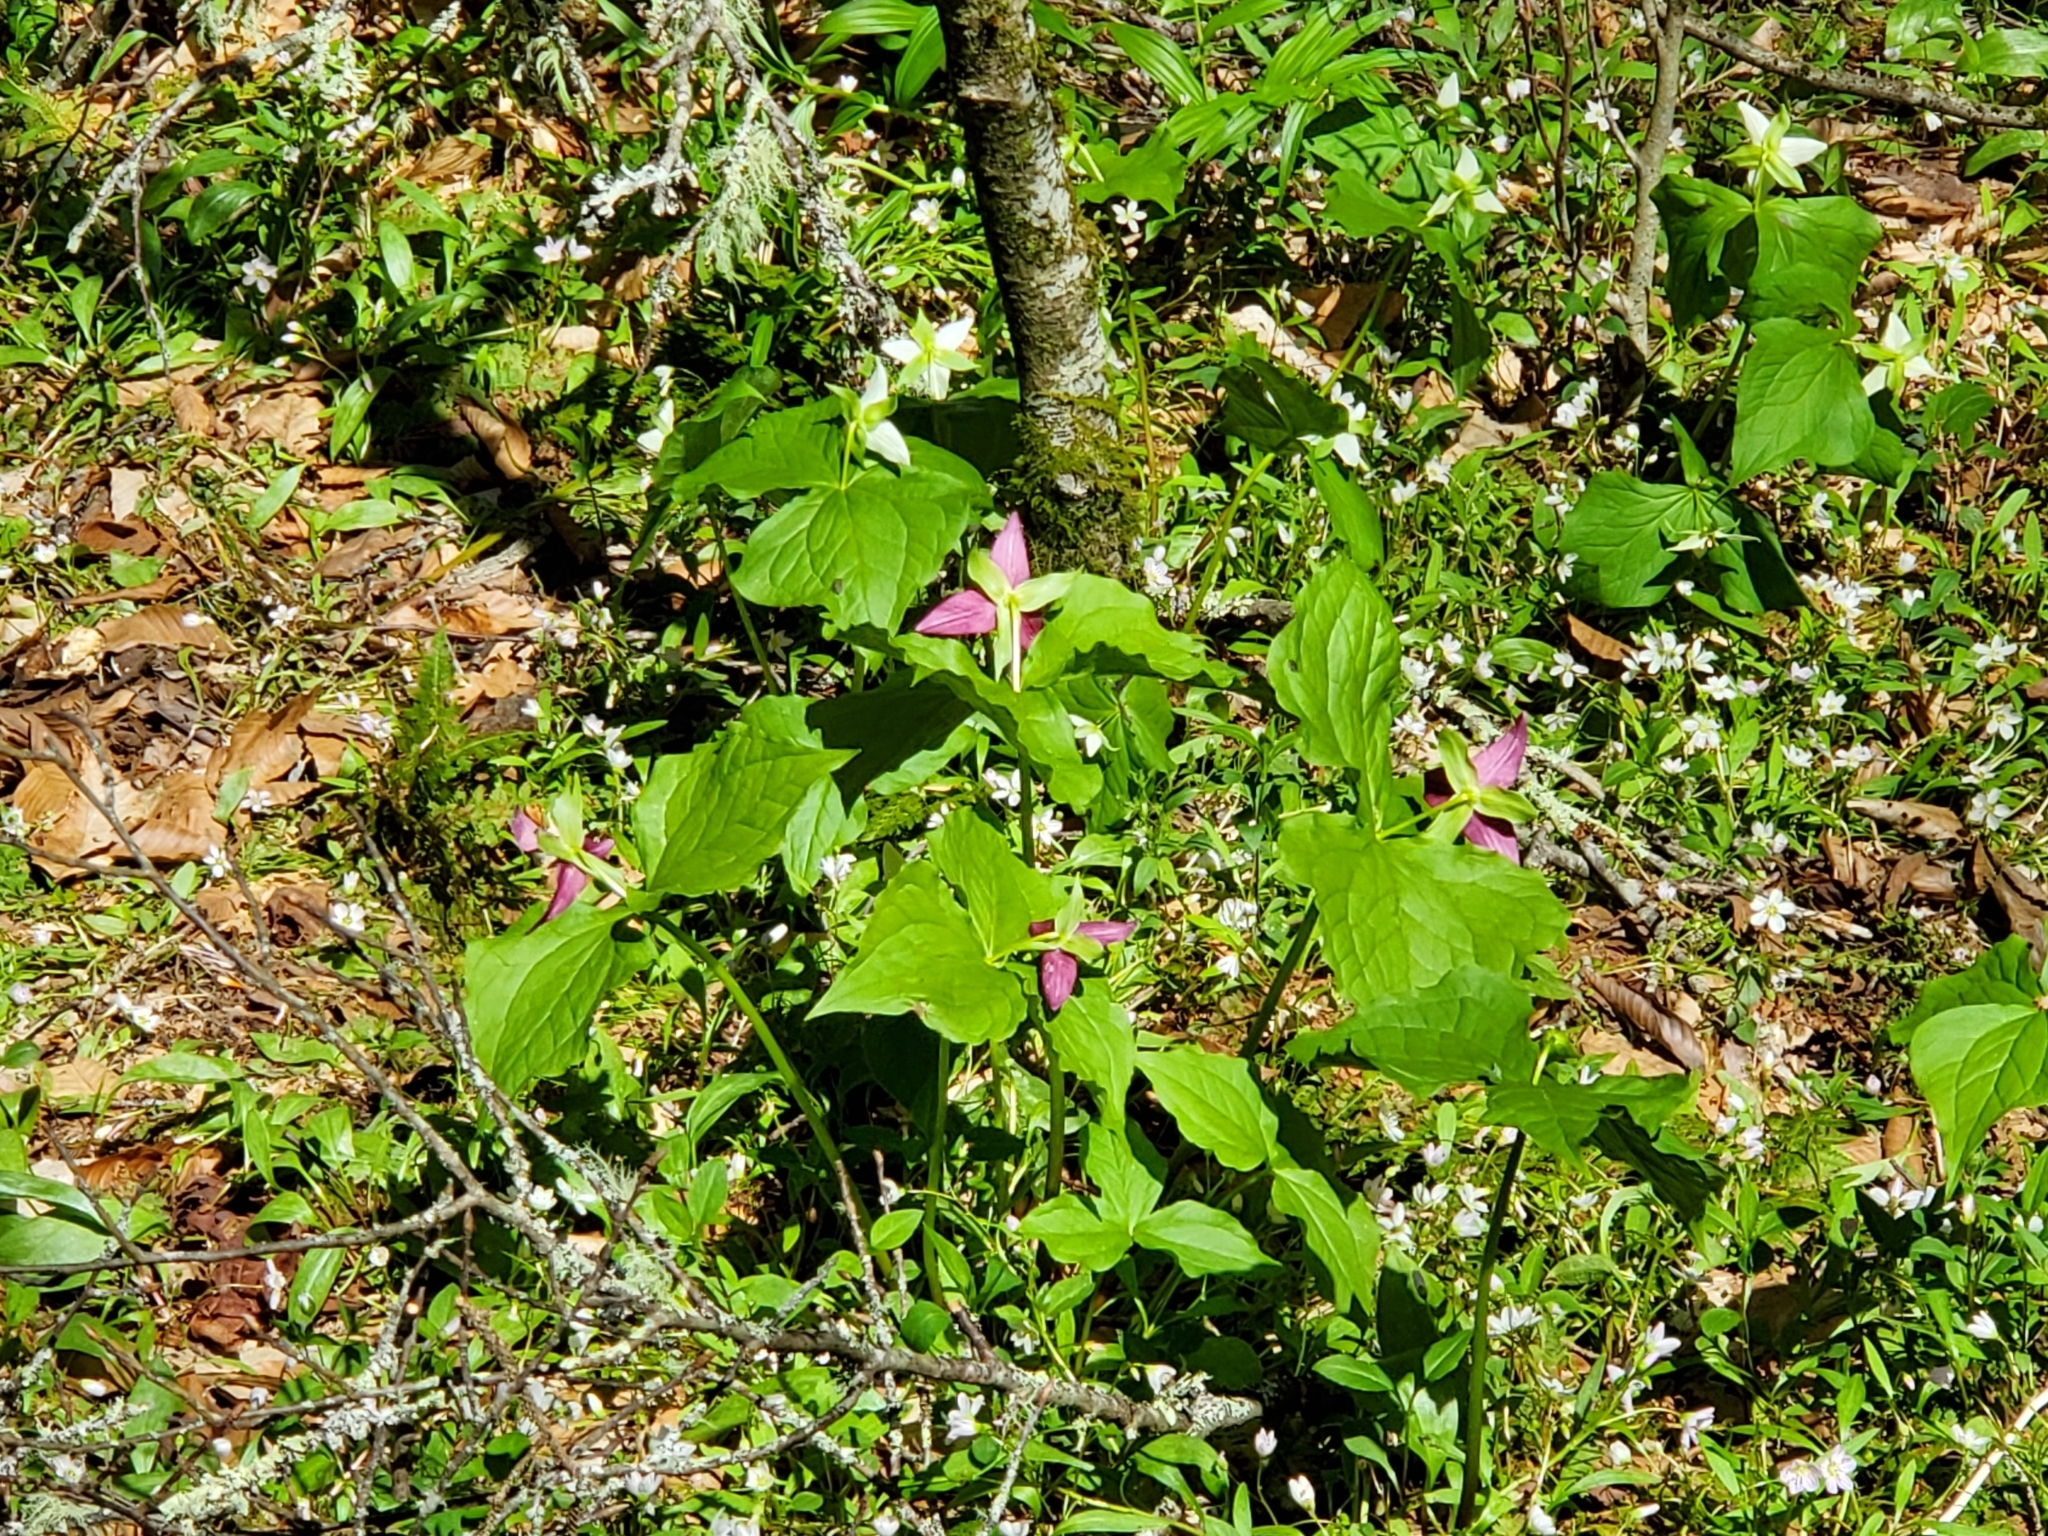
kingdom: Plantae
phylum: Tracheophyta
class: Liliopsida
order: Liliales
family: Melanthiaceae
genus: Trillium
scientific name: Trillium erectum
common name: Purple trillium
